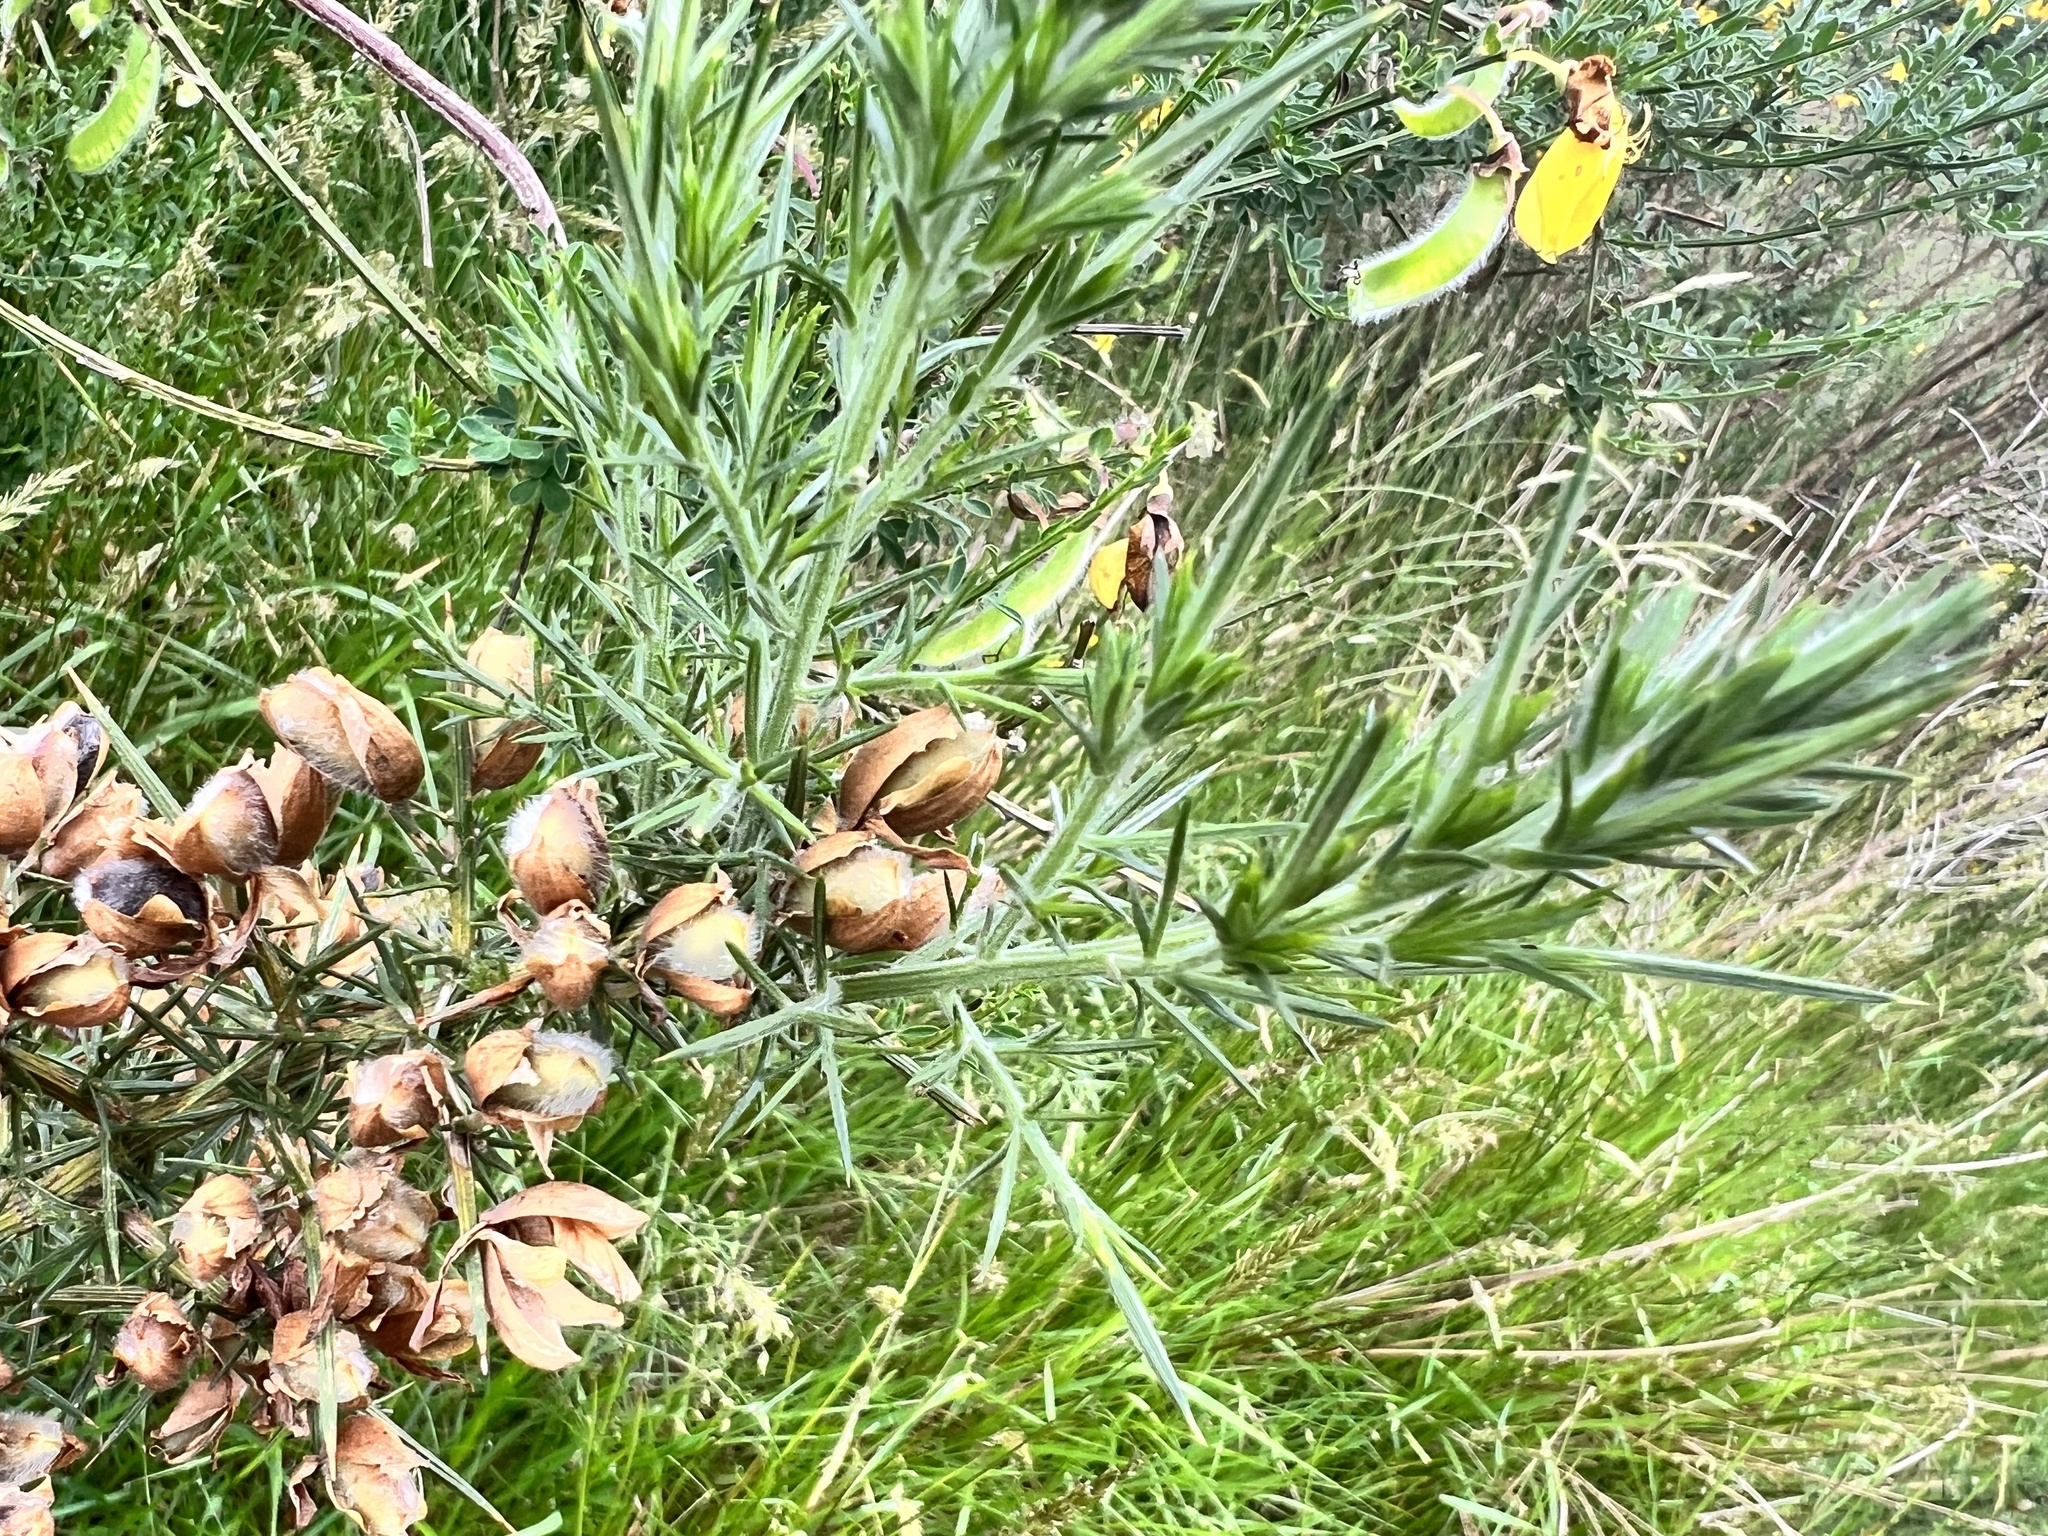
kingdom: Plantae
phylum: Tracheophyta
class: Magnoliopsida
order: Fabales
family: Fabaceae
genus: Ulex
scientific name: Ulex europaeus
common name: Common gorse
